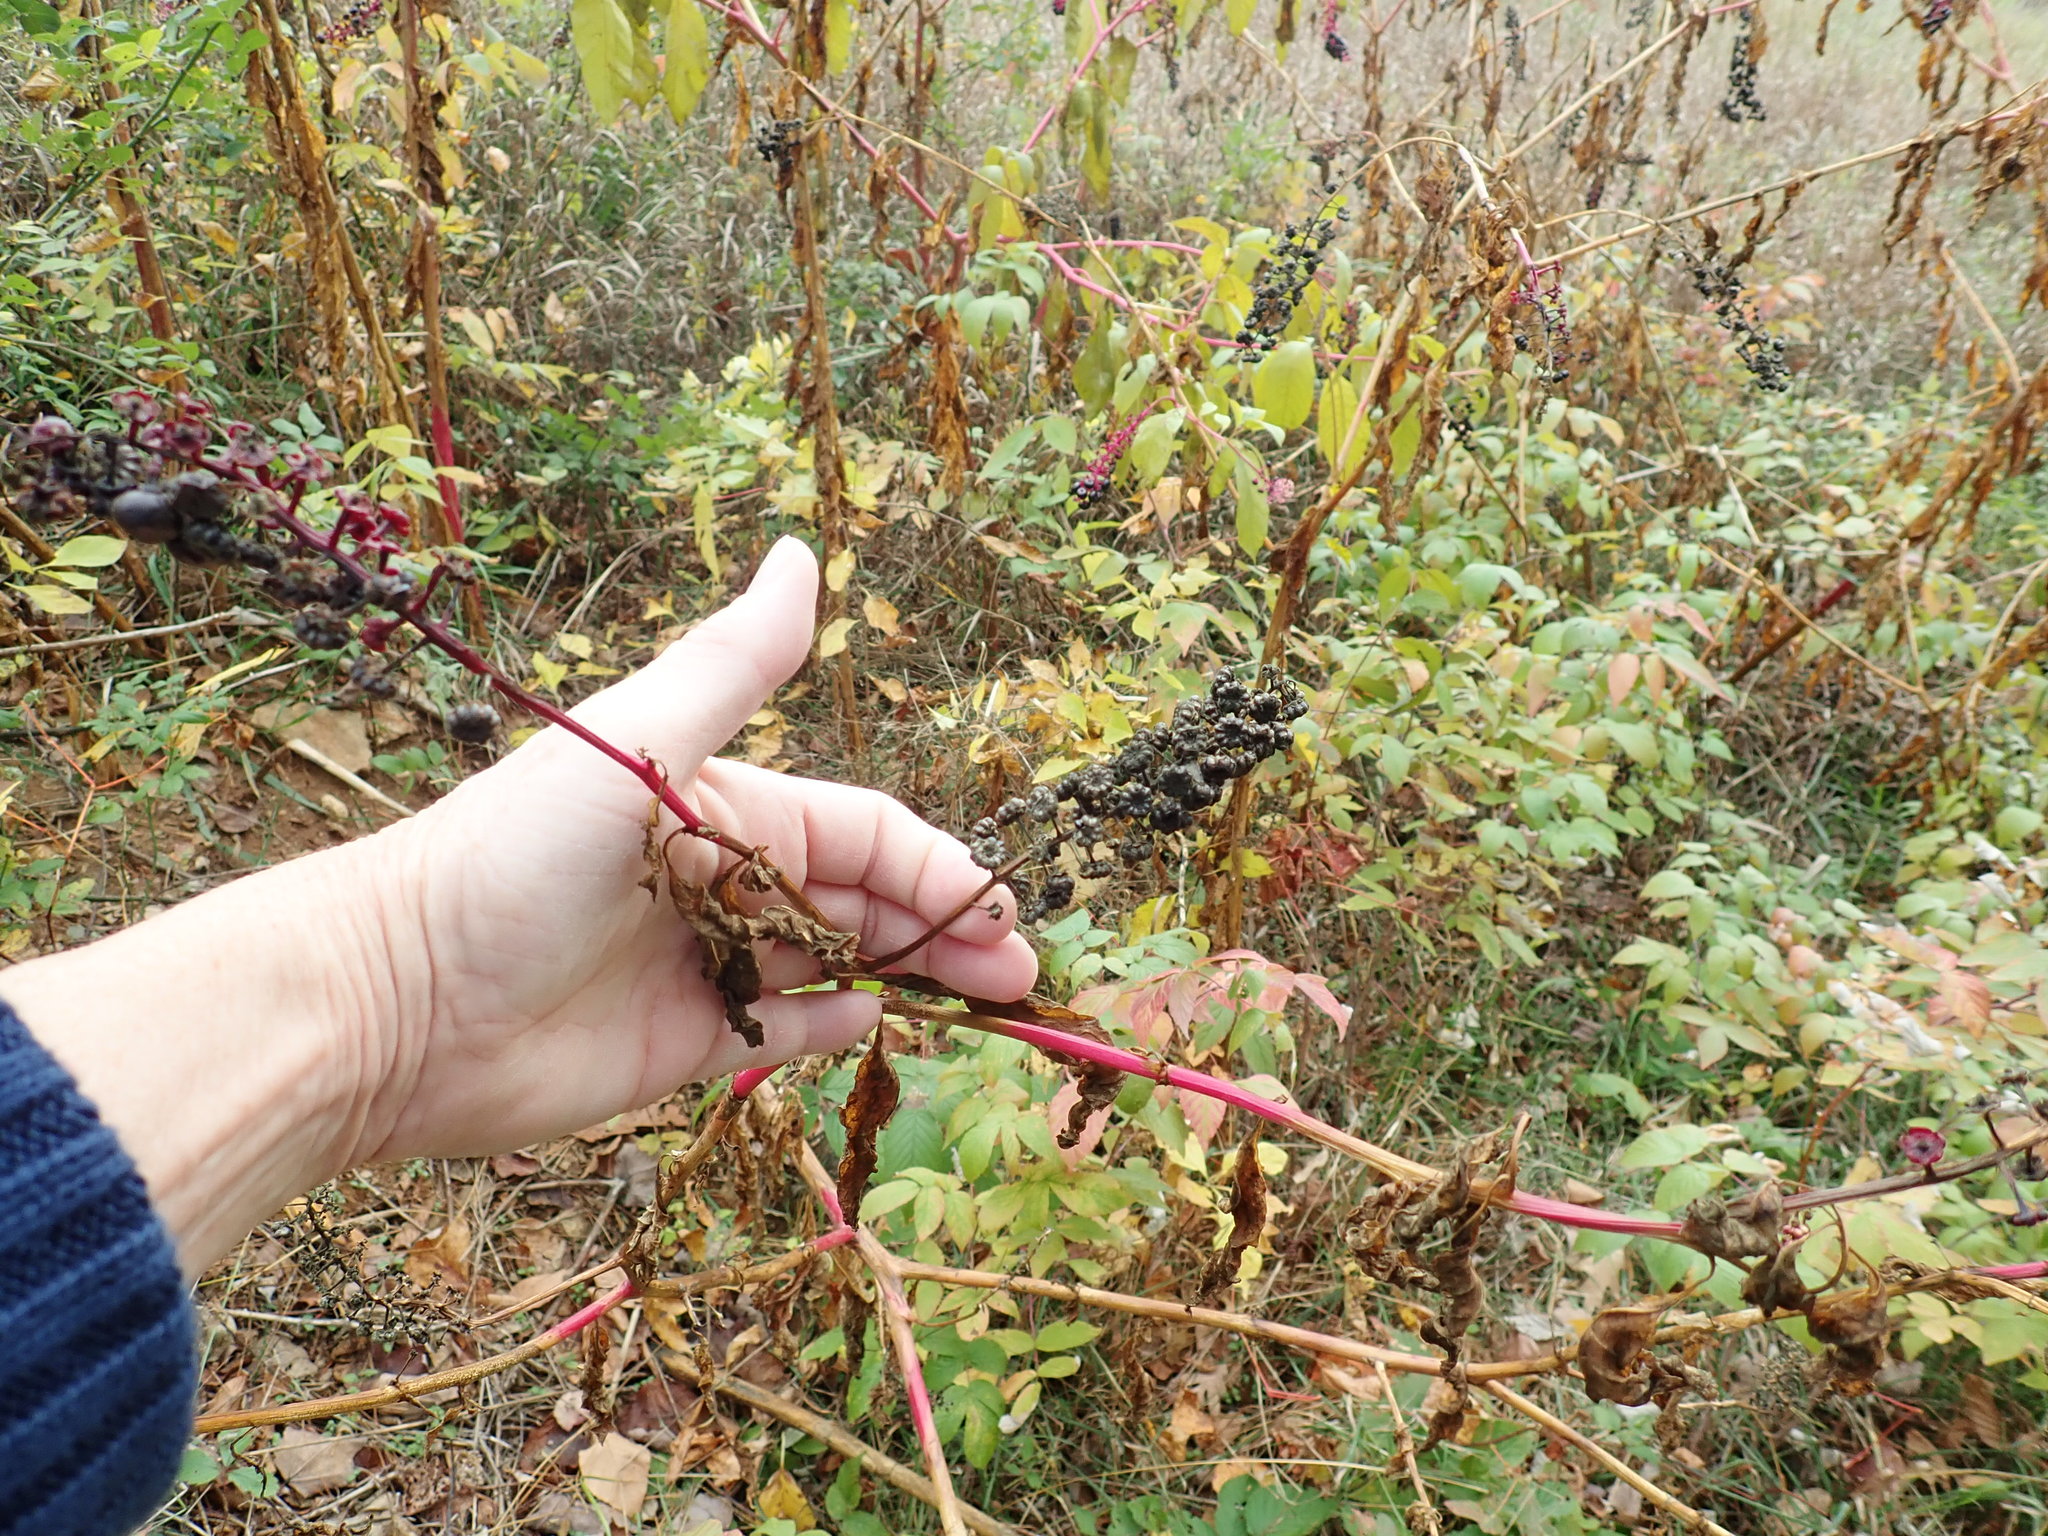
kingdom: Plantae
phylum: Tracheophyta
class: Magnoliopsida
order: Caryophyllales
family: Phytolaccaceae
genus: Phytolacca
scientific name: Phytolacca americana
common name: American pokeweed
